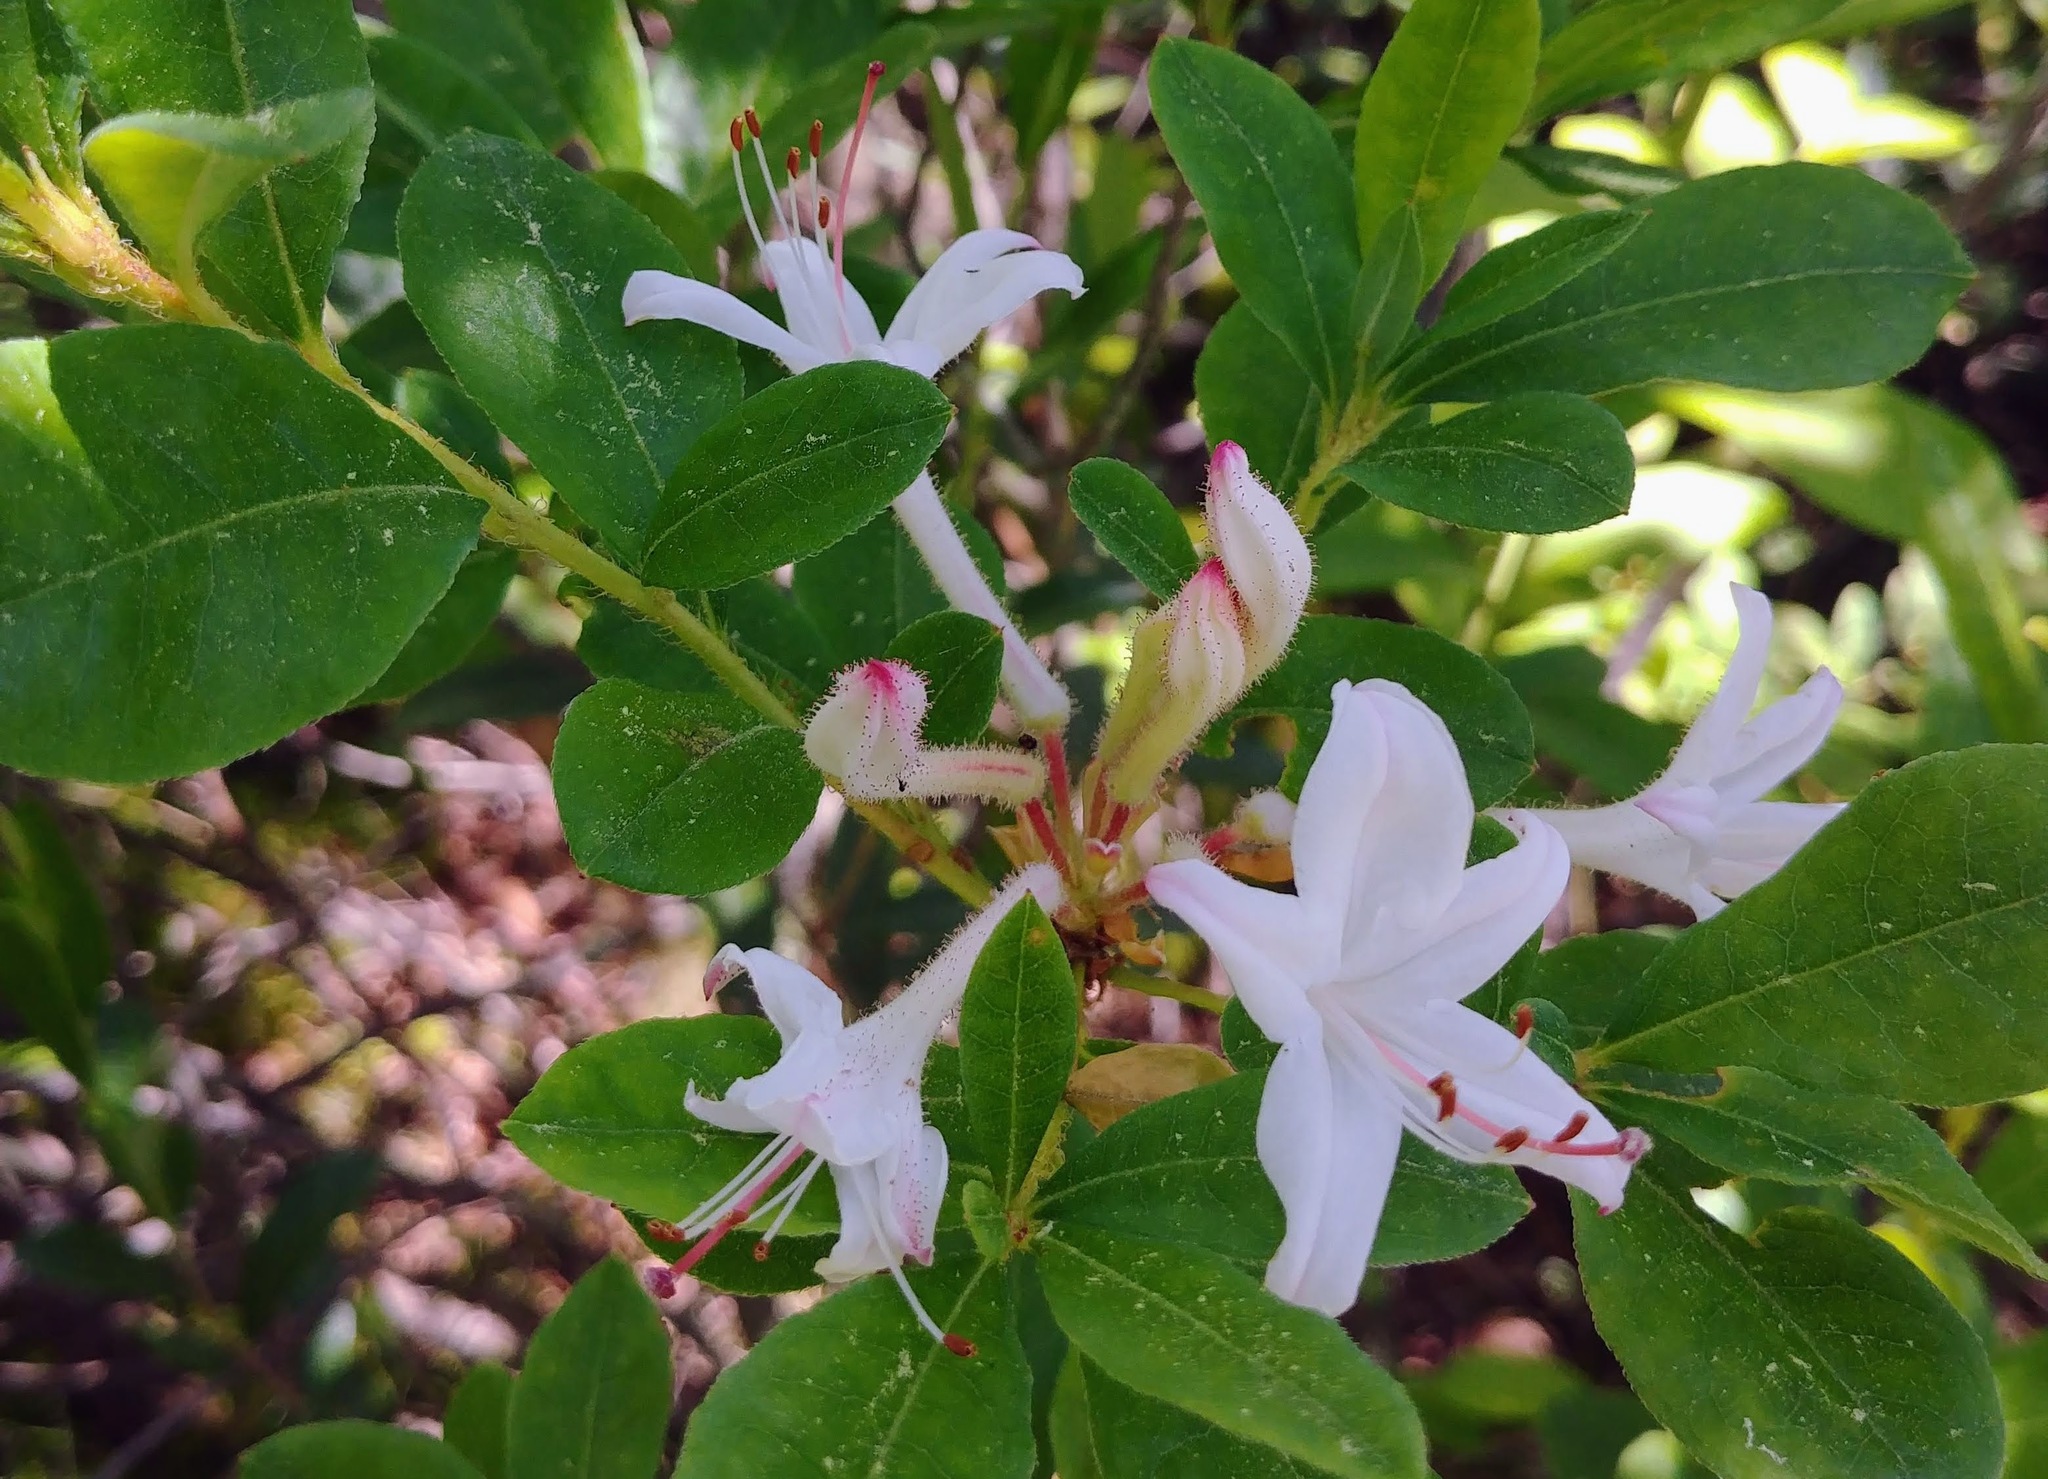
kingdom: Plantae
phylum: Tracheophyta
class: Magnoliopsida
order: Ericales
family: Ericaceae
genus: Rhododendron
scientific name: Rhododendron viscosum
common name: Clammy azalea
